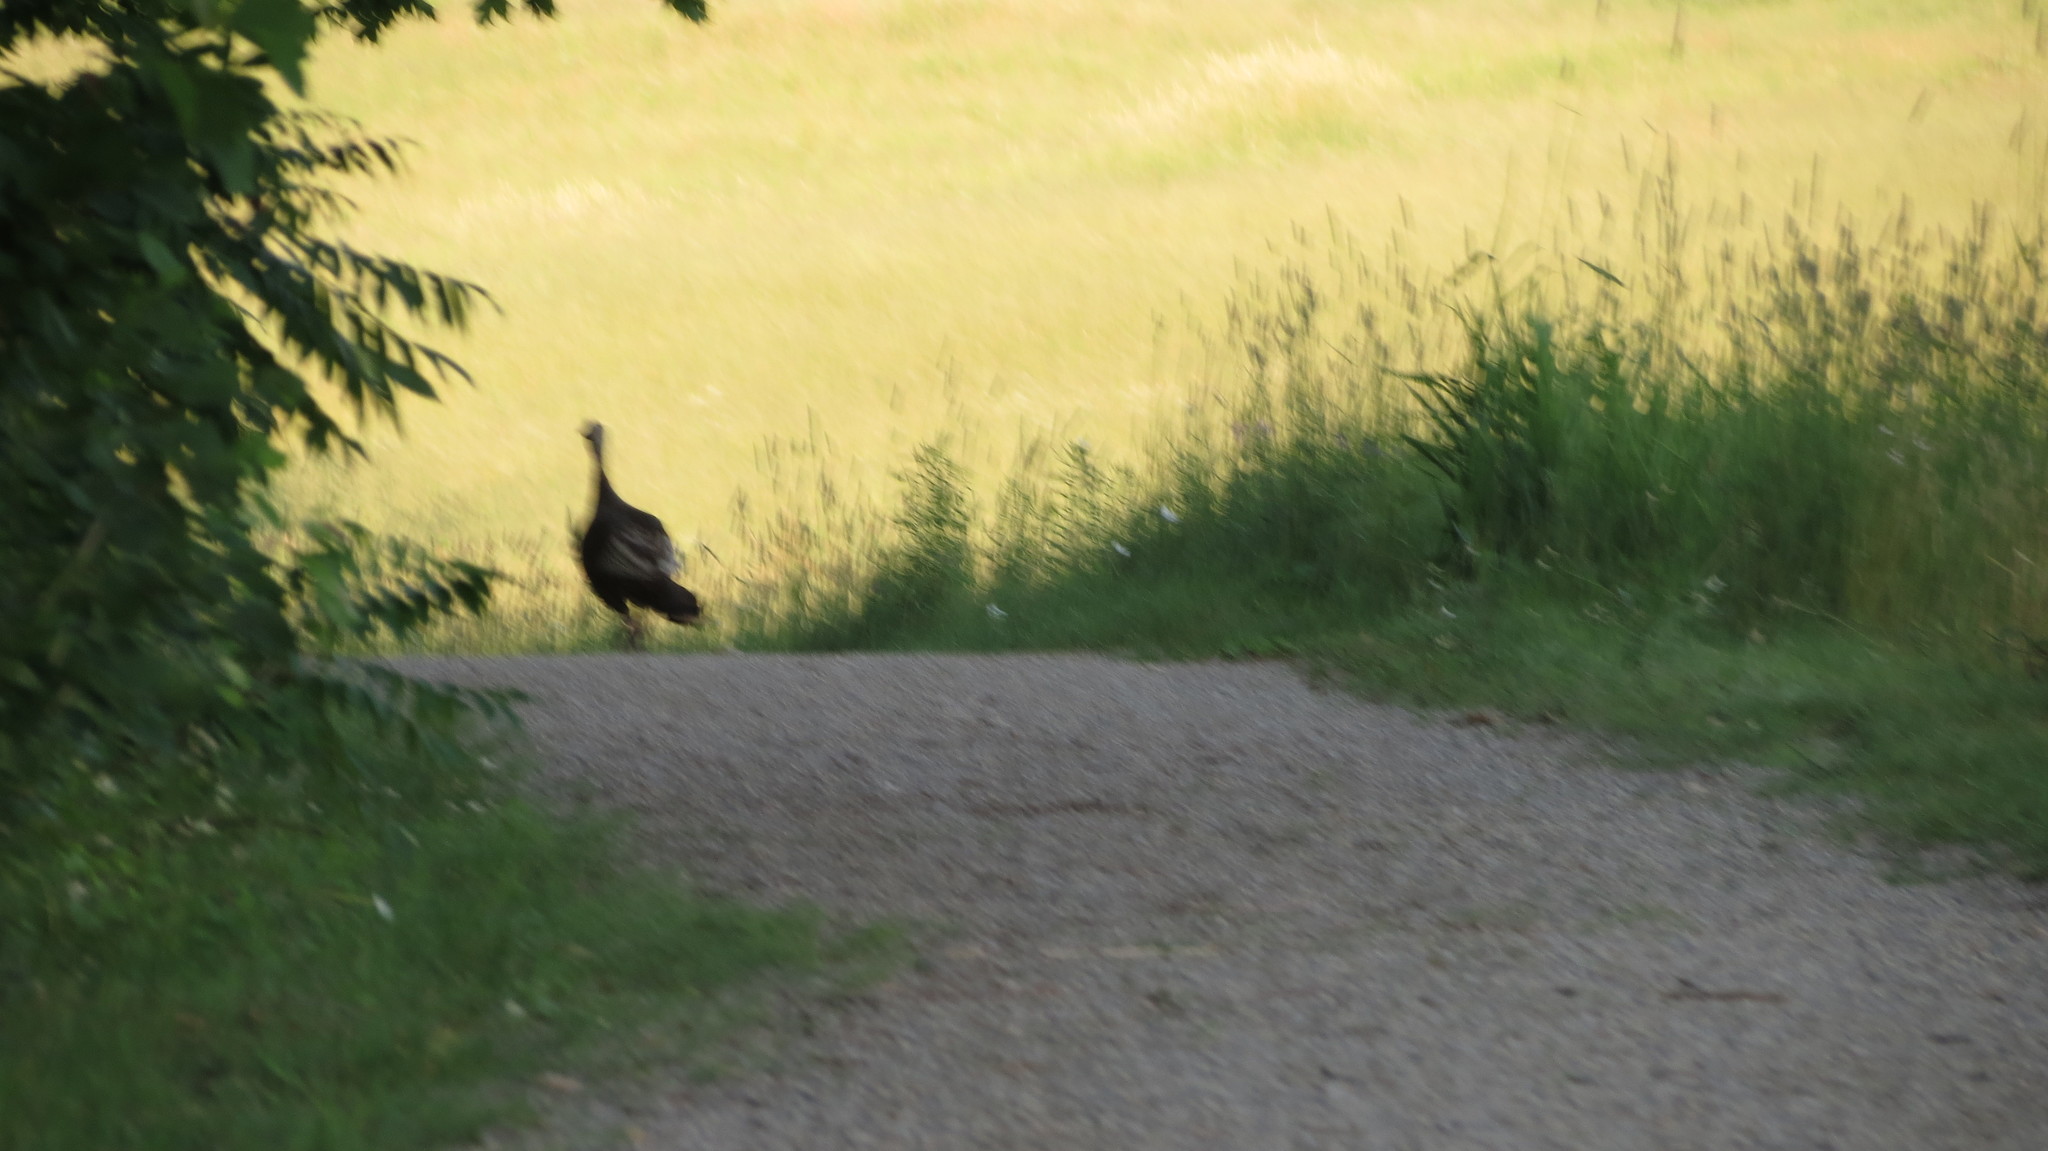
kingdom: Animalia
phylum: Chordata
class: Aves
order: Galliformes
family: Phasianidae
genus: Meleagris
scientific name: Meleagris gallopavo
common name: Wild turkey
